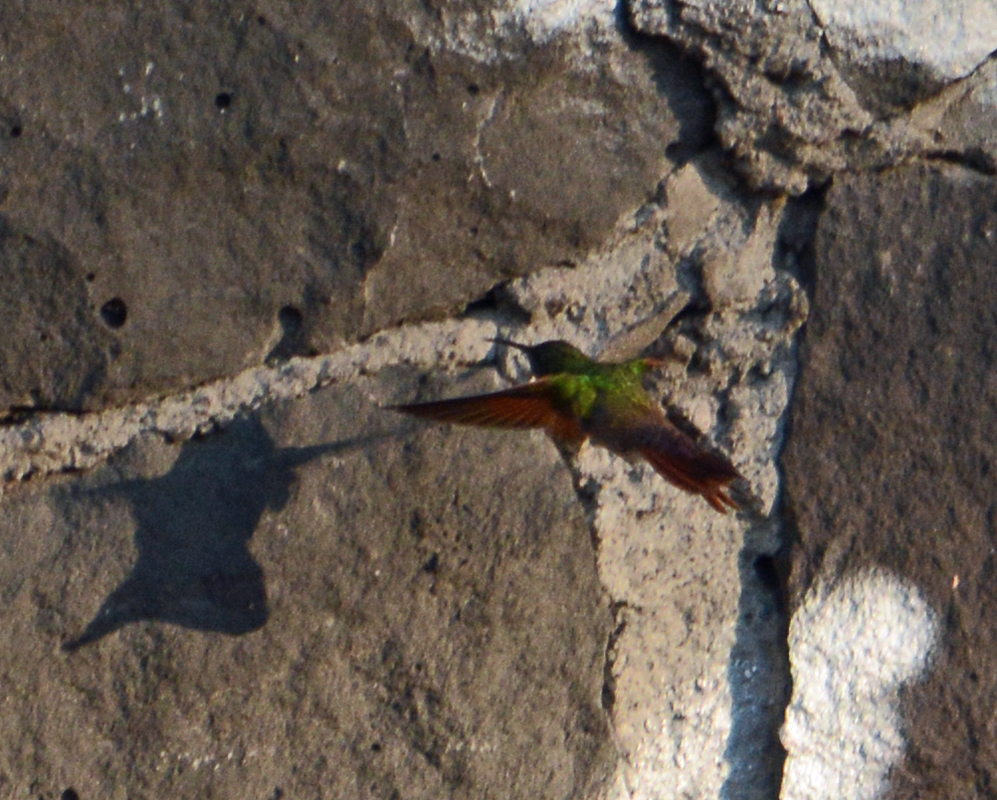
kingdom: Animalia
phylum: Chordata
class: Aves
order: Apodiformes
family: Trochilidae
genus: Saucerottia
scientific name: Saucerottia beryllina
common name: Berylline hummingbird
